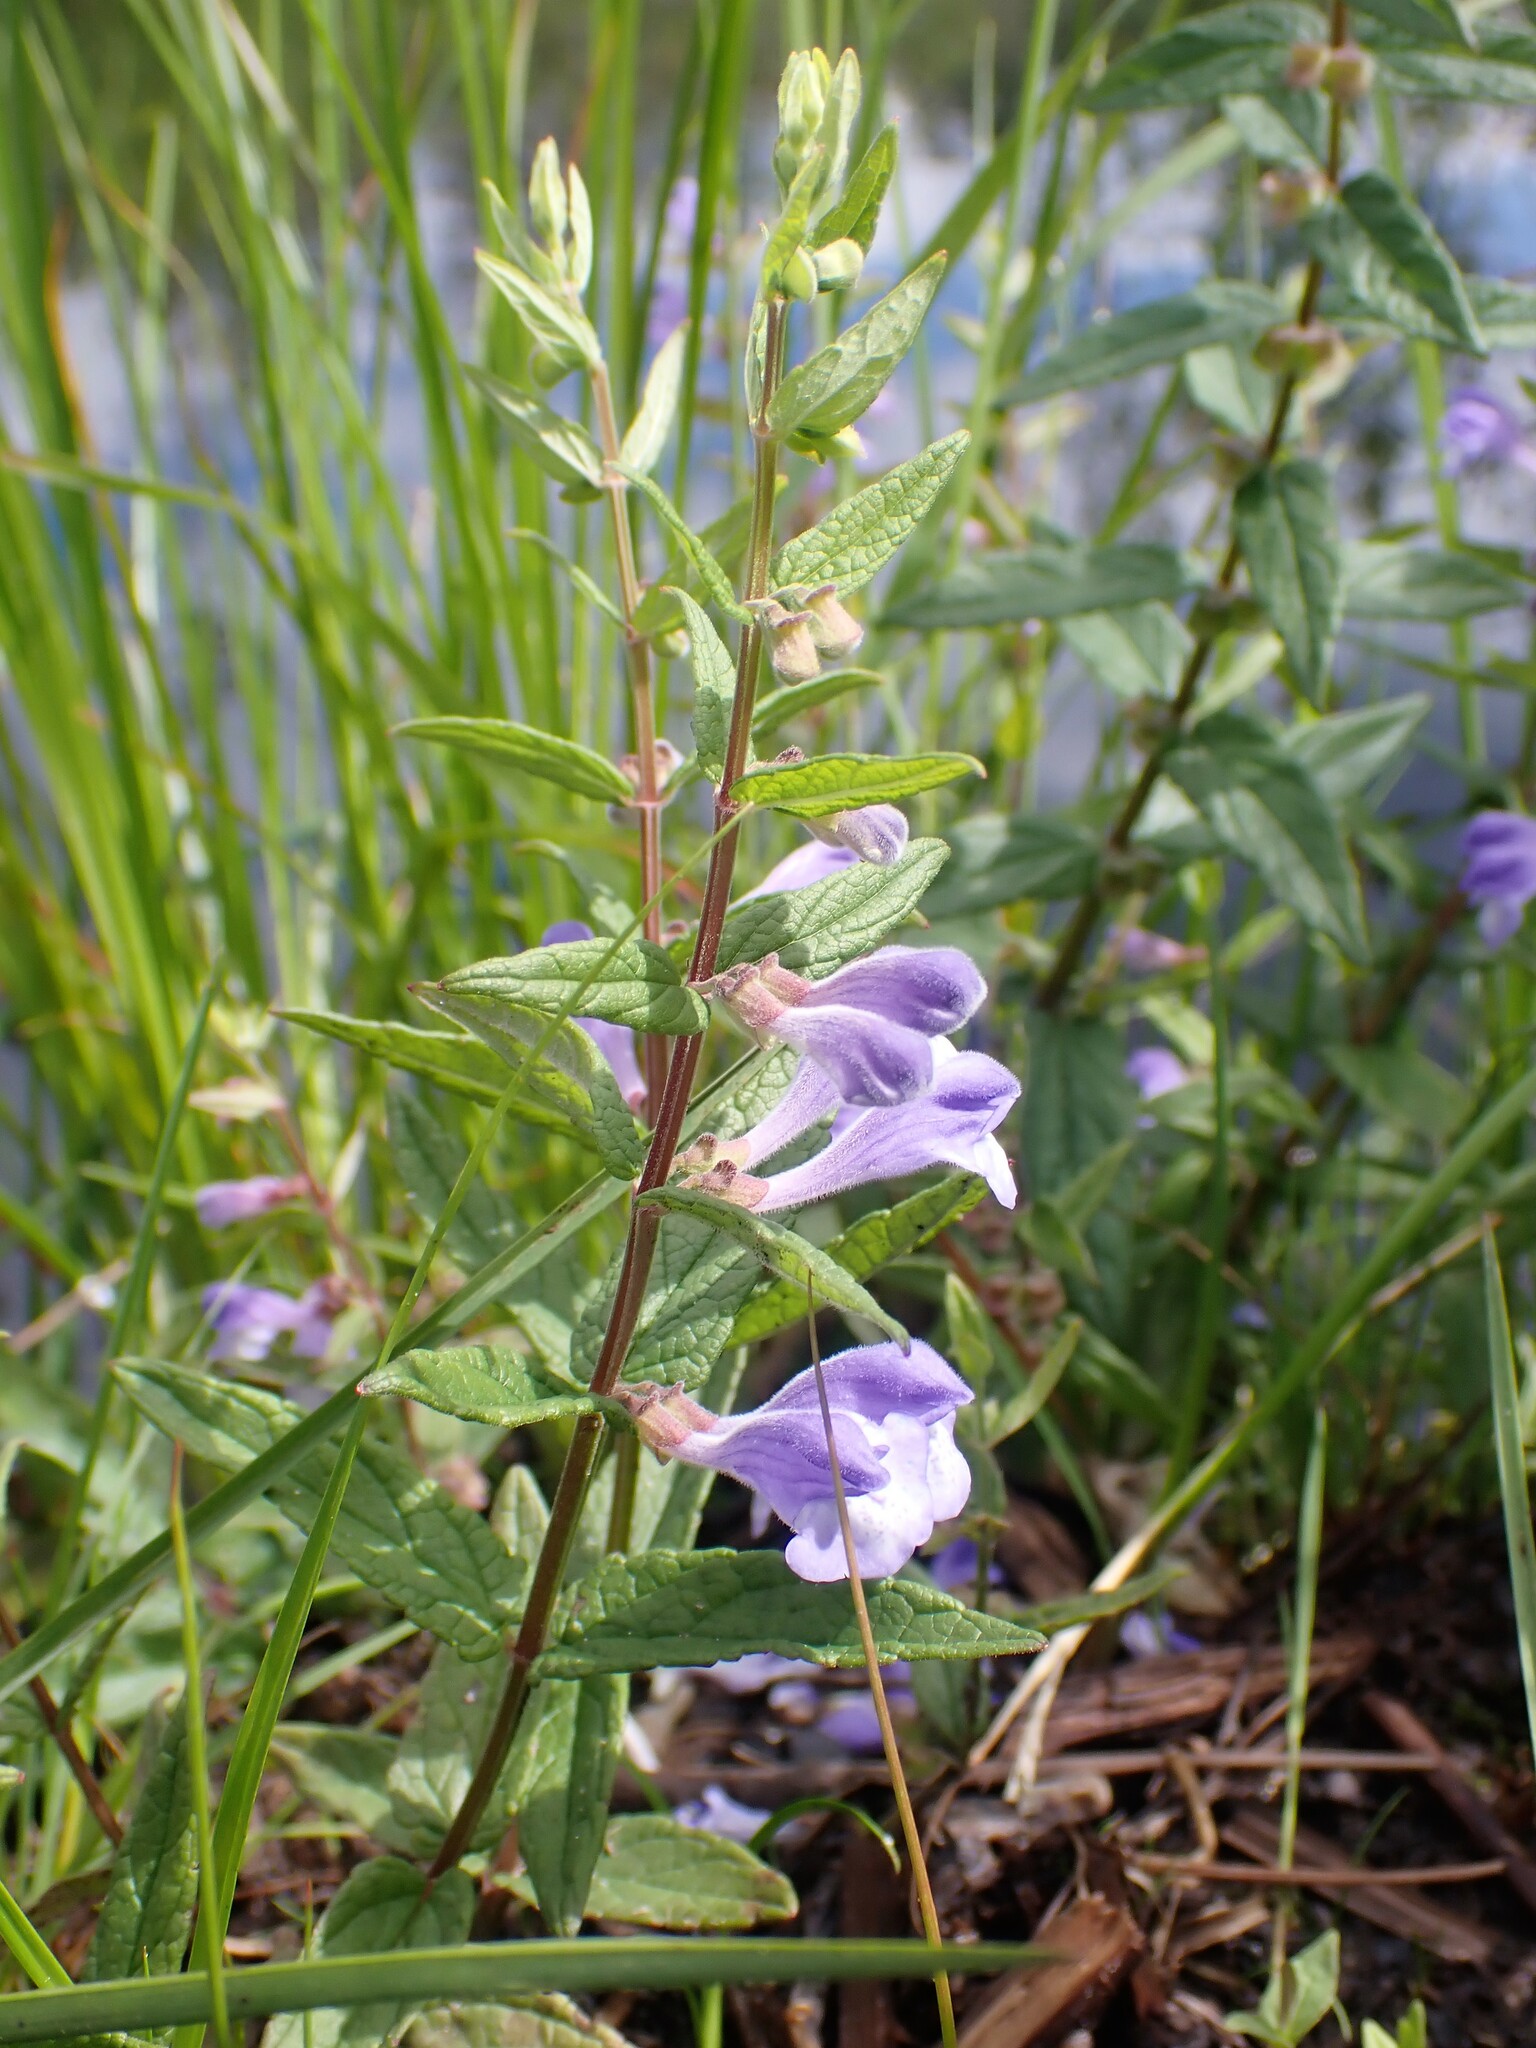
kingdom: Plantae
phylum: Tracheophyta
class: Magnoliopsida
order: Lamiales
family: Lamiaceae
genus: Scutellaria
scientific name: Scutellaria galericulata
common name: Skullcap
